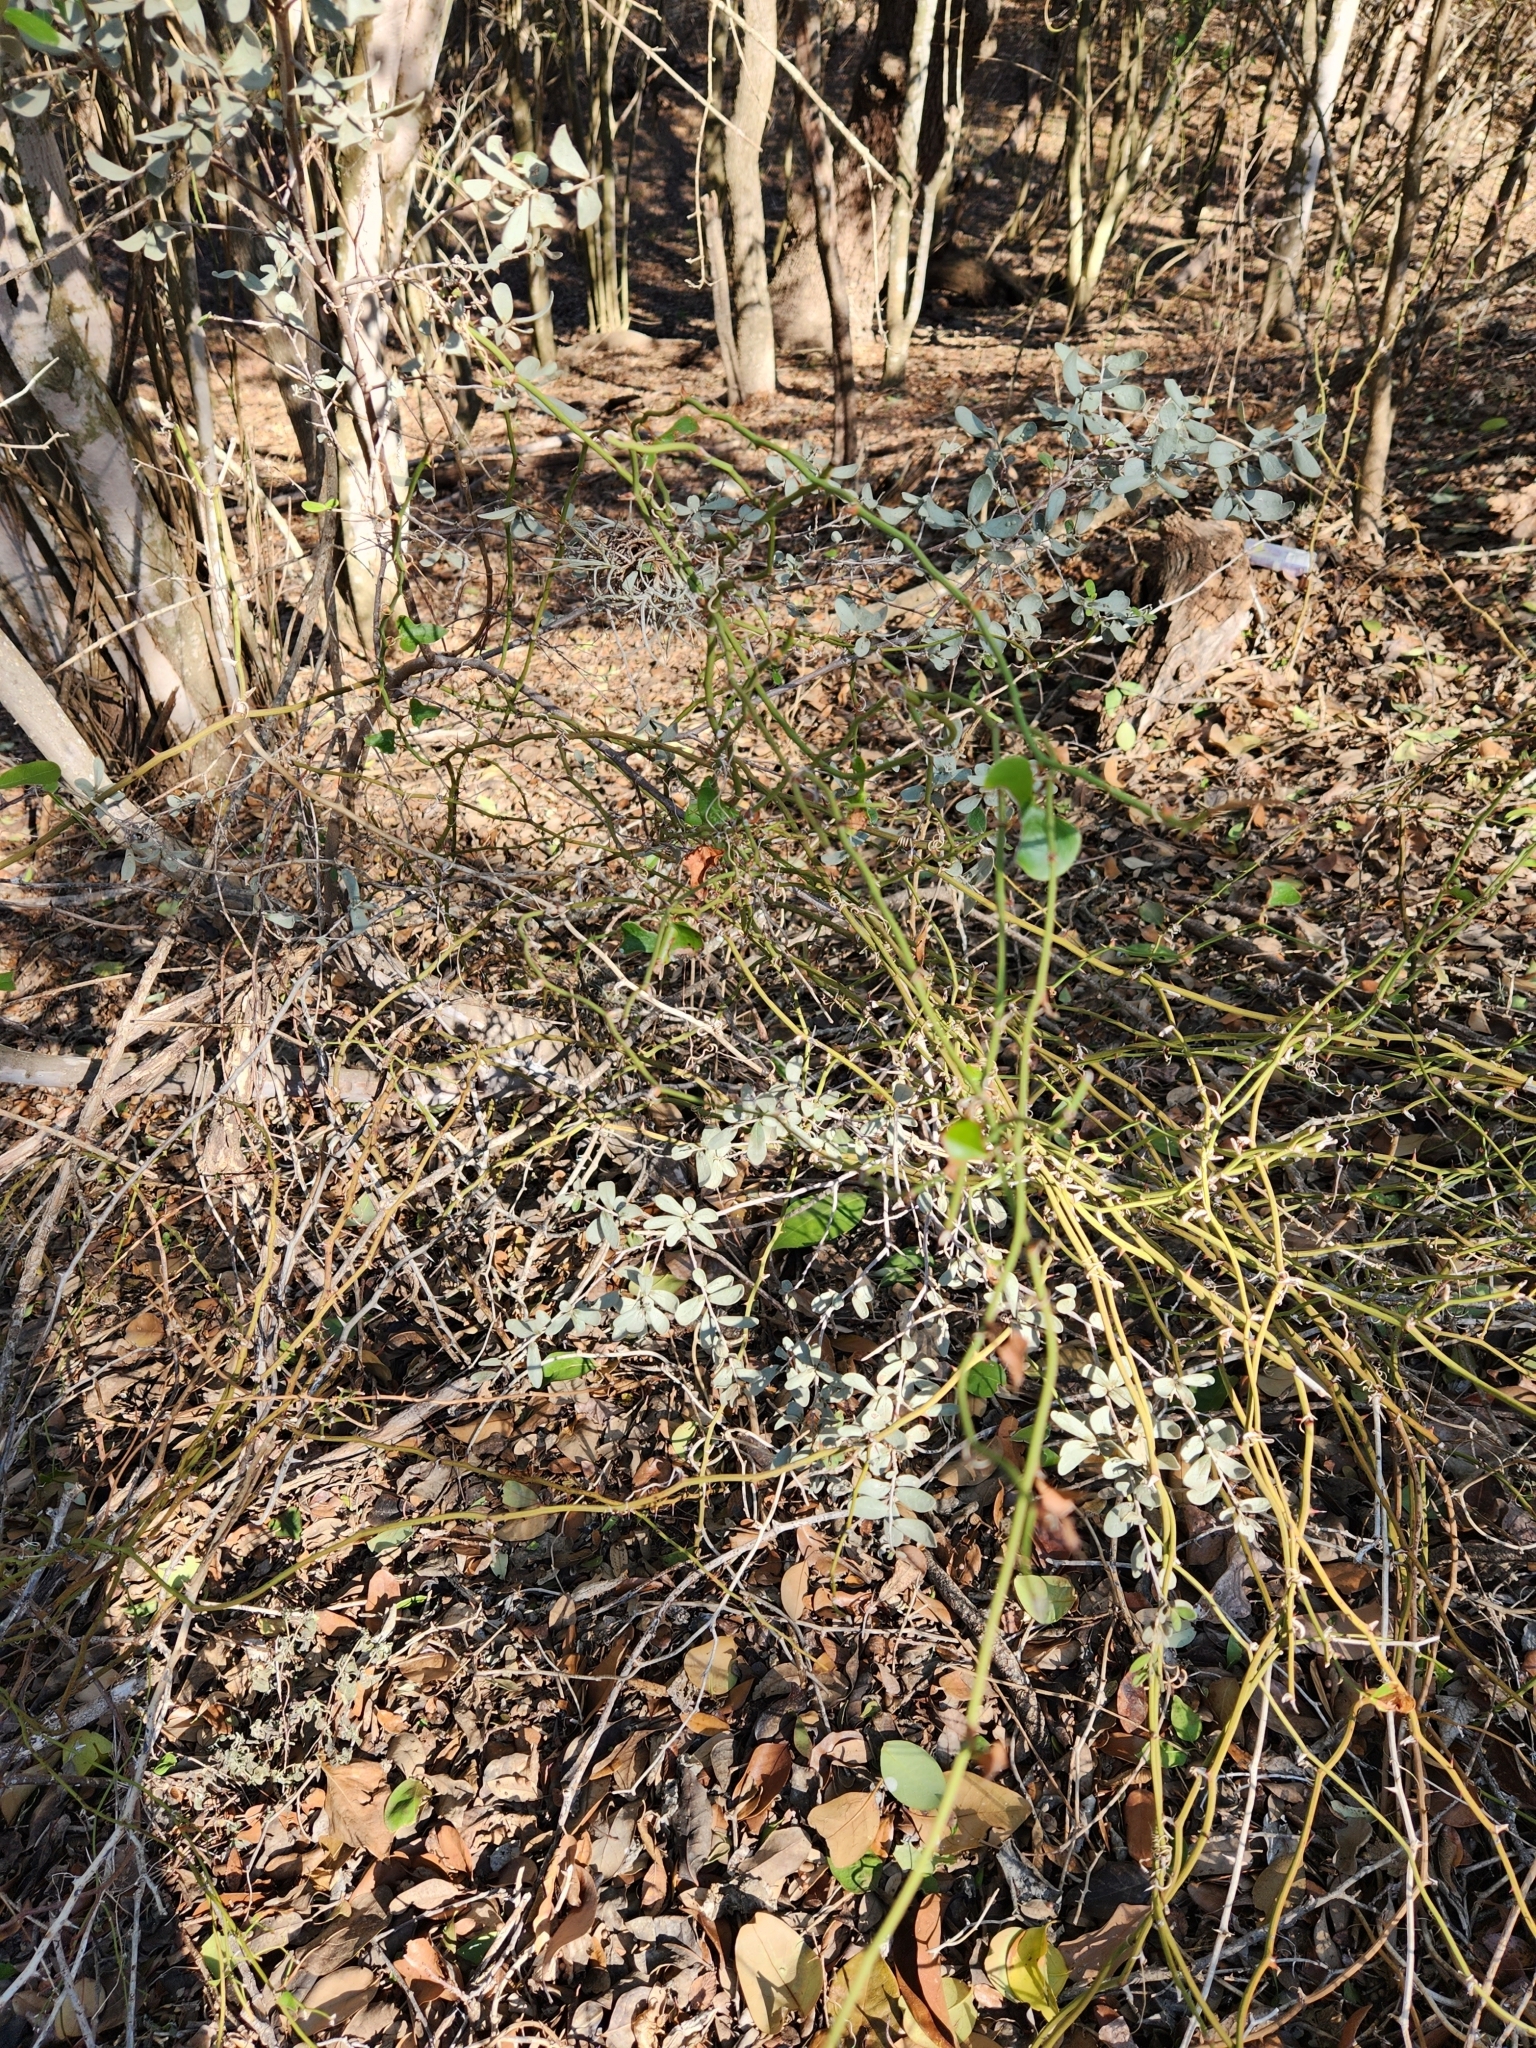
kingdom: Plantae
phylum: Tracheophyta
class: Magnoliopsida
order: Ericales
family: Ebenaceae
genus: Diospyros
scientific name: Diospyros texana
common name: Texas persimmon
